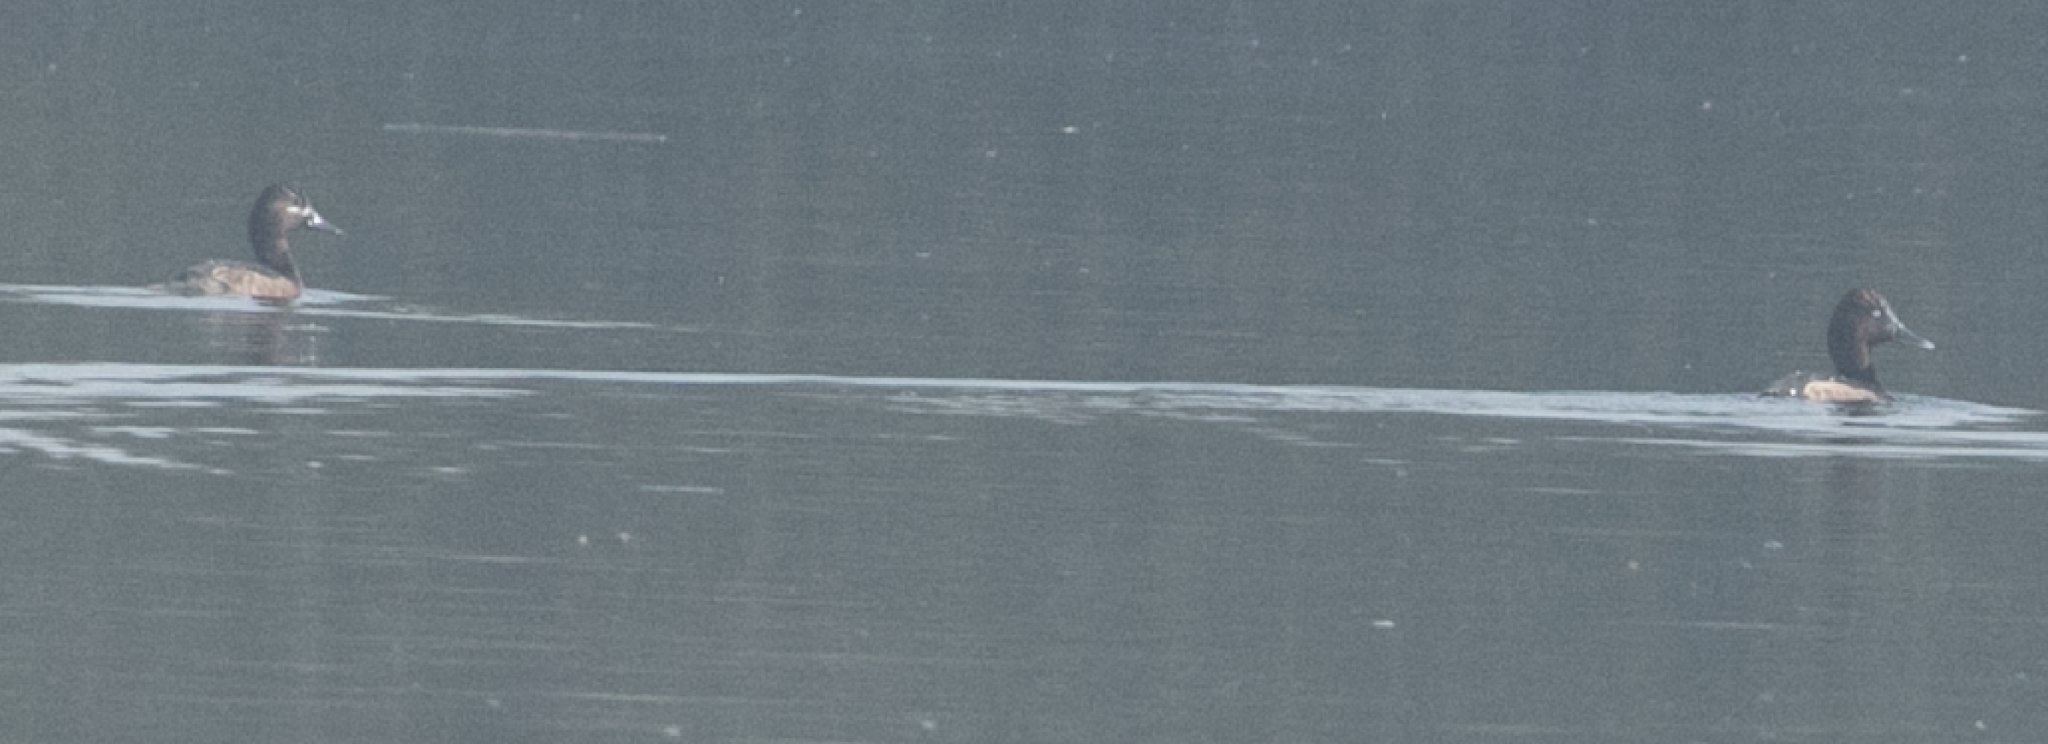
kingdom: Animalia
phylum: Chordata
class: Aves
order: Anseriformes
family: Anatidae
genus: Aythya
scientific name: Aythya nyroca
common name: Ferruginous duck
